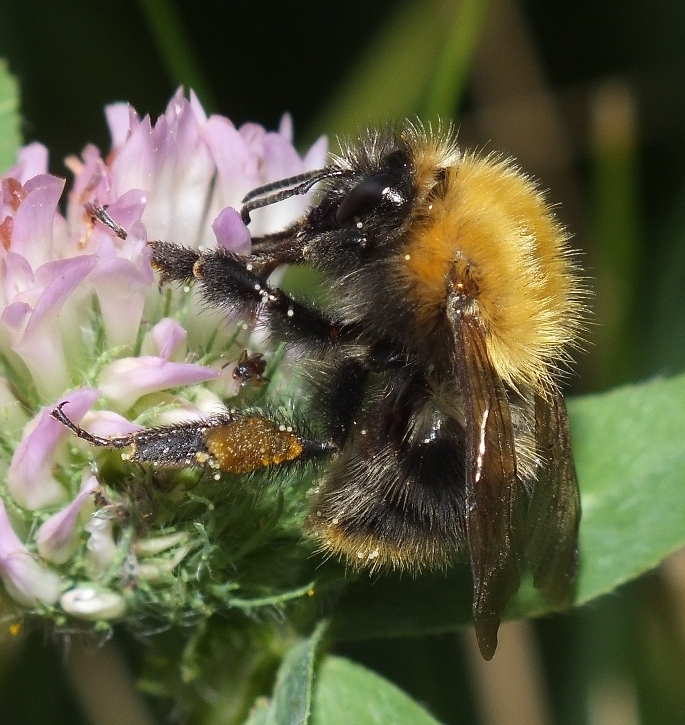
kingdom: Animalia
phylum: Arthropoda
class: Insecta
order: Hymenoptera
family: Apidae
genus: Bombus
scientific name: Bombus pascuorum
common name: Common carder bee
